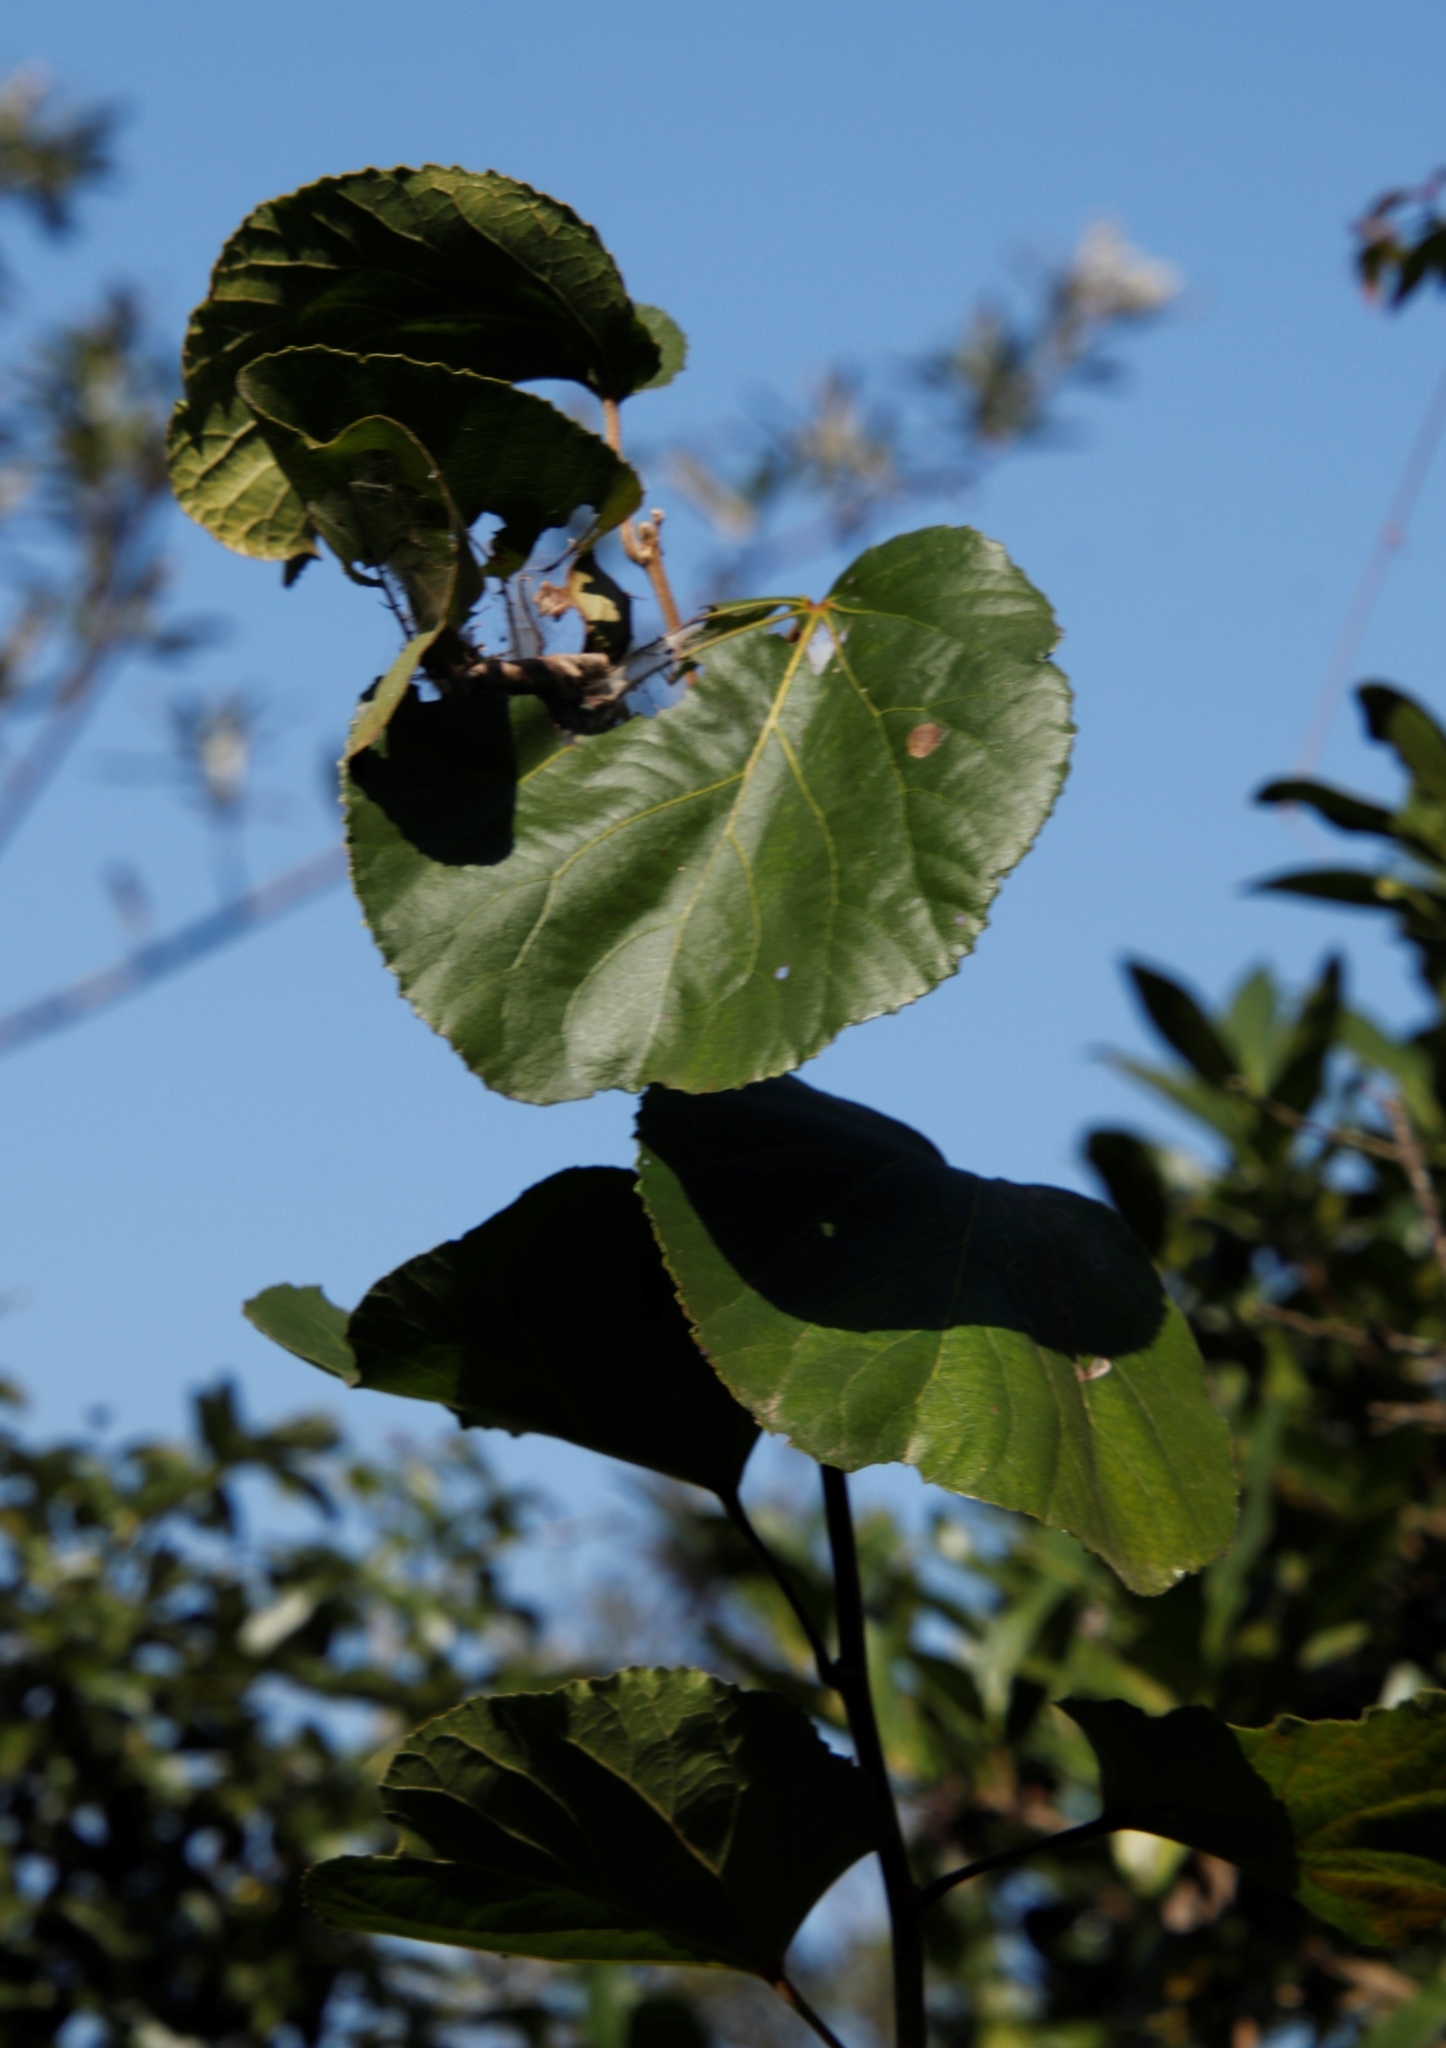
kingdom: Plantae
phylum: Tracheophyta
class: Magnoliopsida
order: Malpighiales
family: Salicaceae
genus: Trimeria
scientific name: Trimeria grandifolia
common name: Wild mulberry
